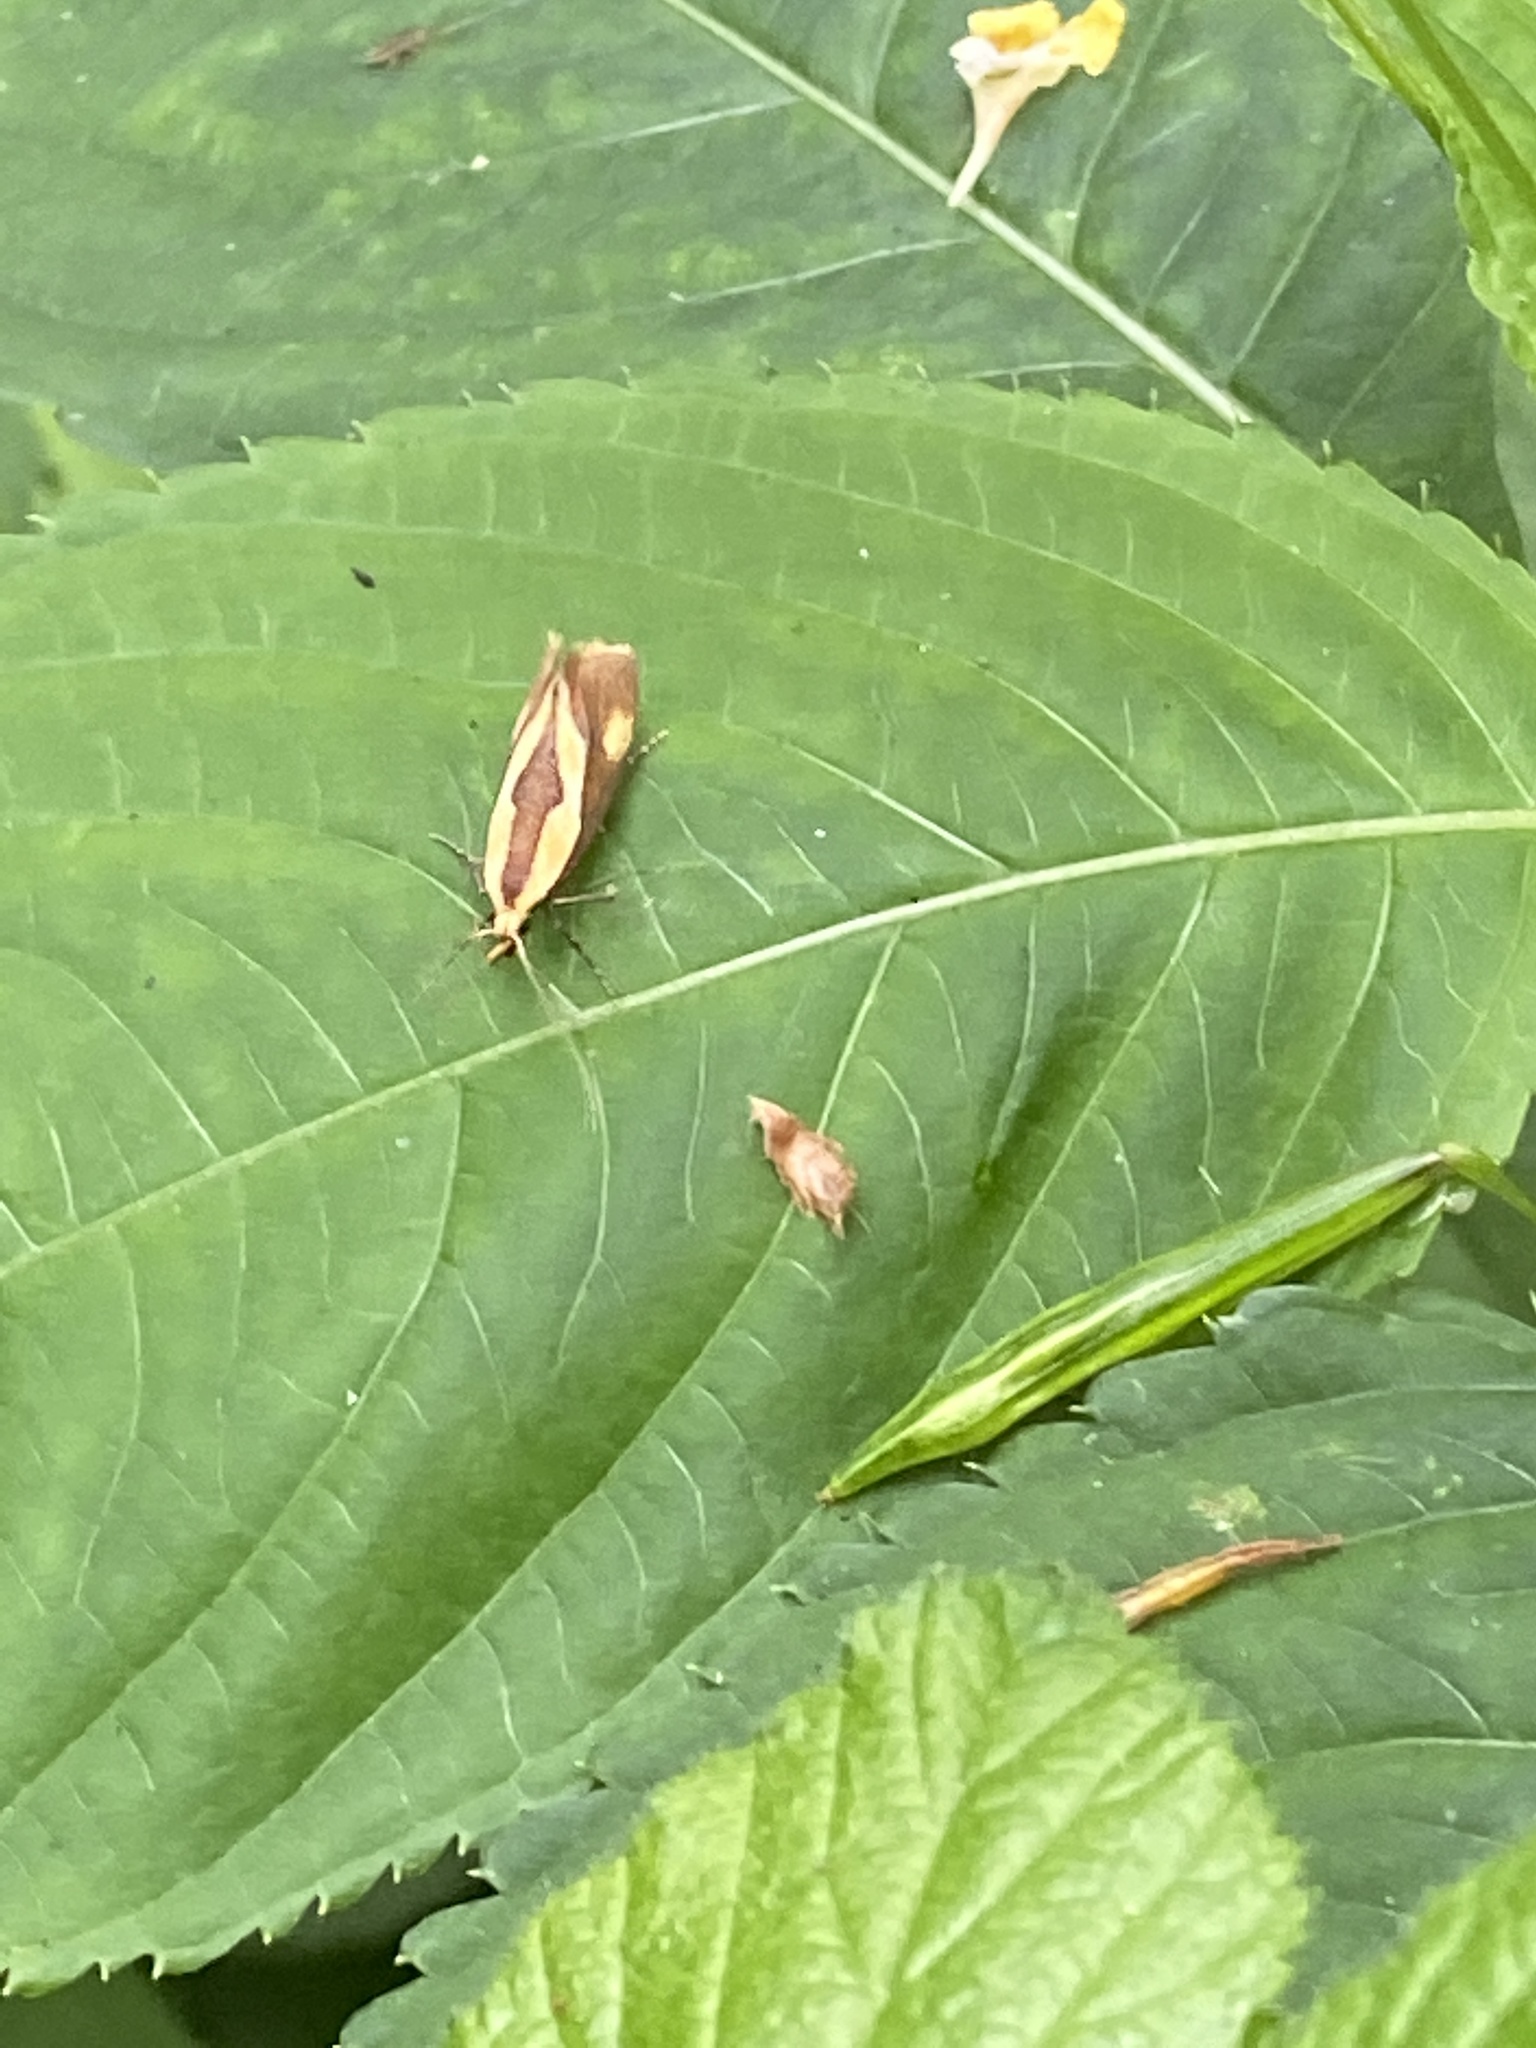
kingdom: Animalia
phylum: Arthropoda
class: Insecta
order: Lepidoptera
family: Oecophoridae
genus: Harpella
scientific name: Harpella forficella
